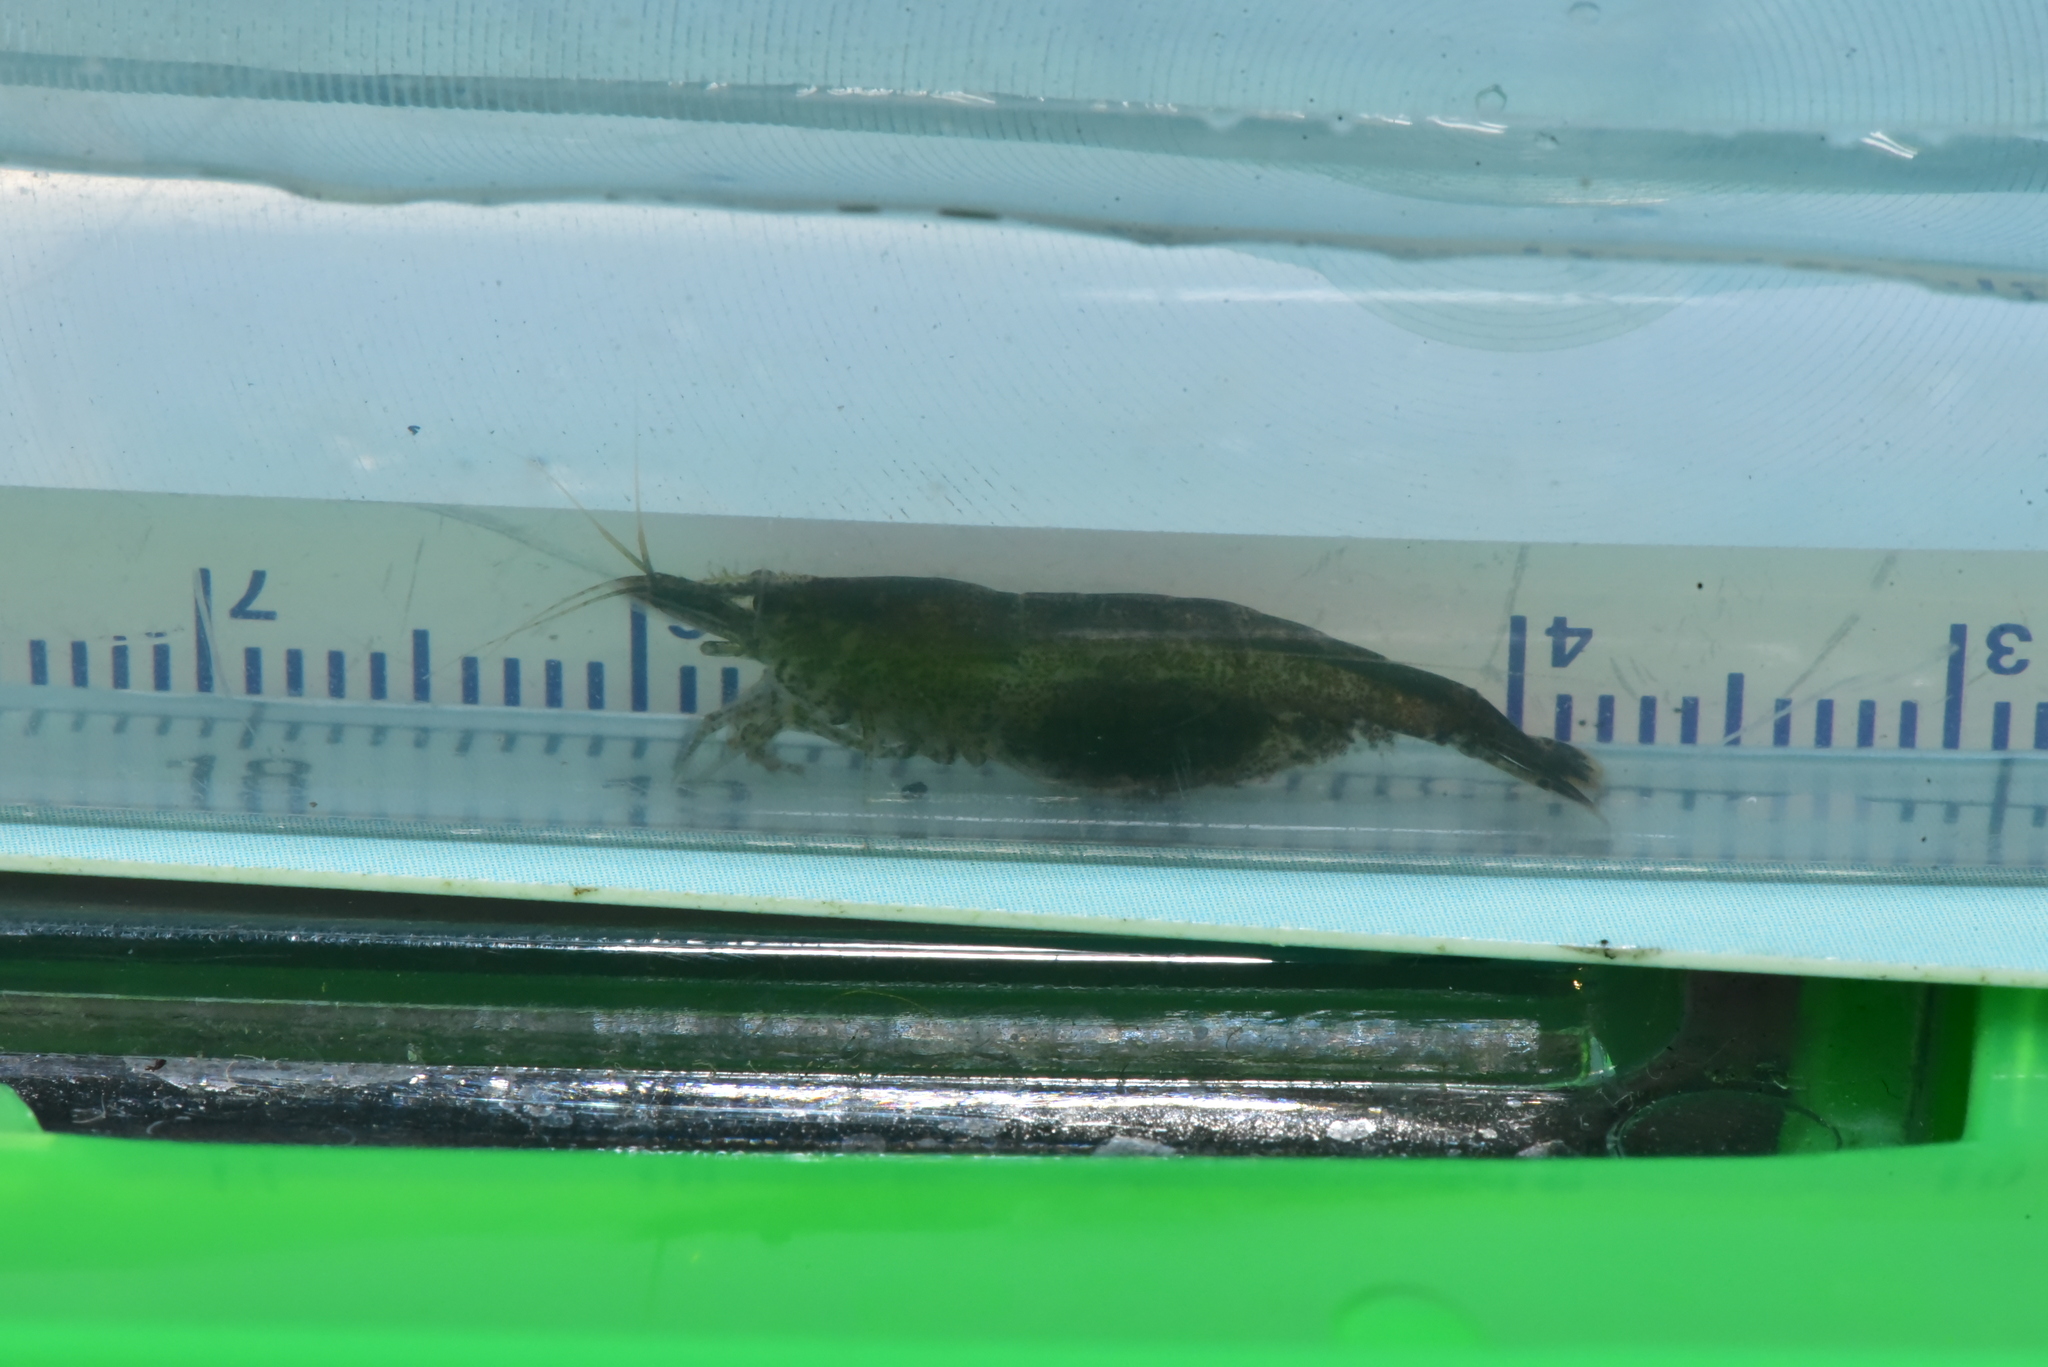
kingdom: Animalia
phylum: Arthropoda
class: Malacostraca
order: Decapoda
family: Atyidae
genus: Caridina
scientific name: Caridina pseudodenticulata
